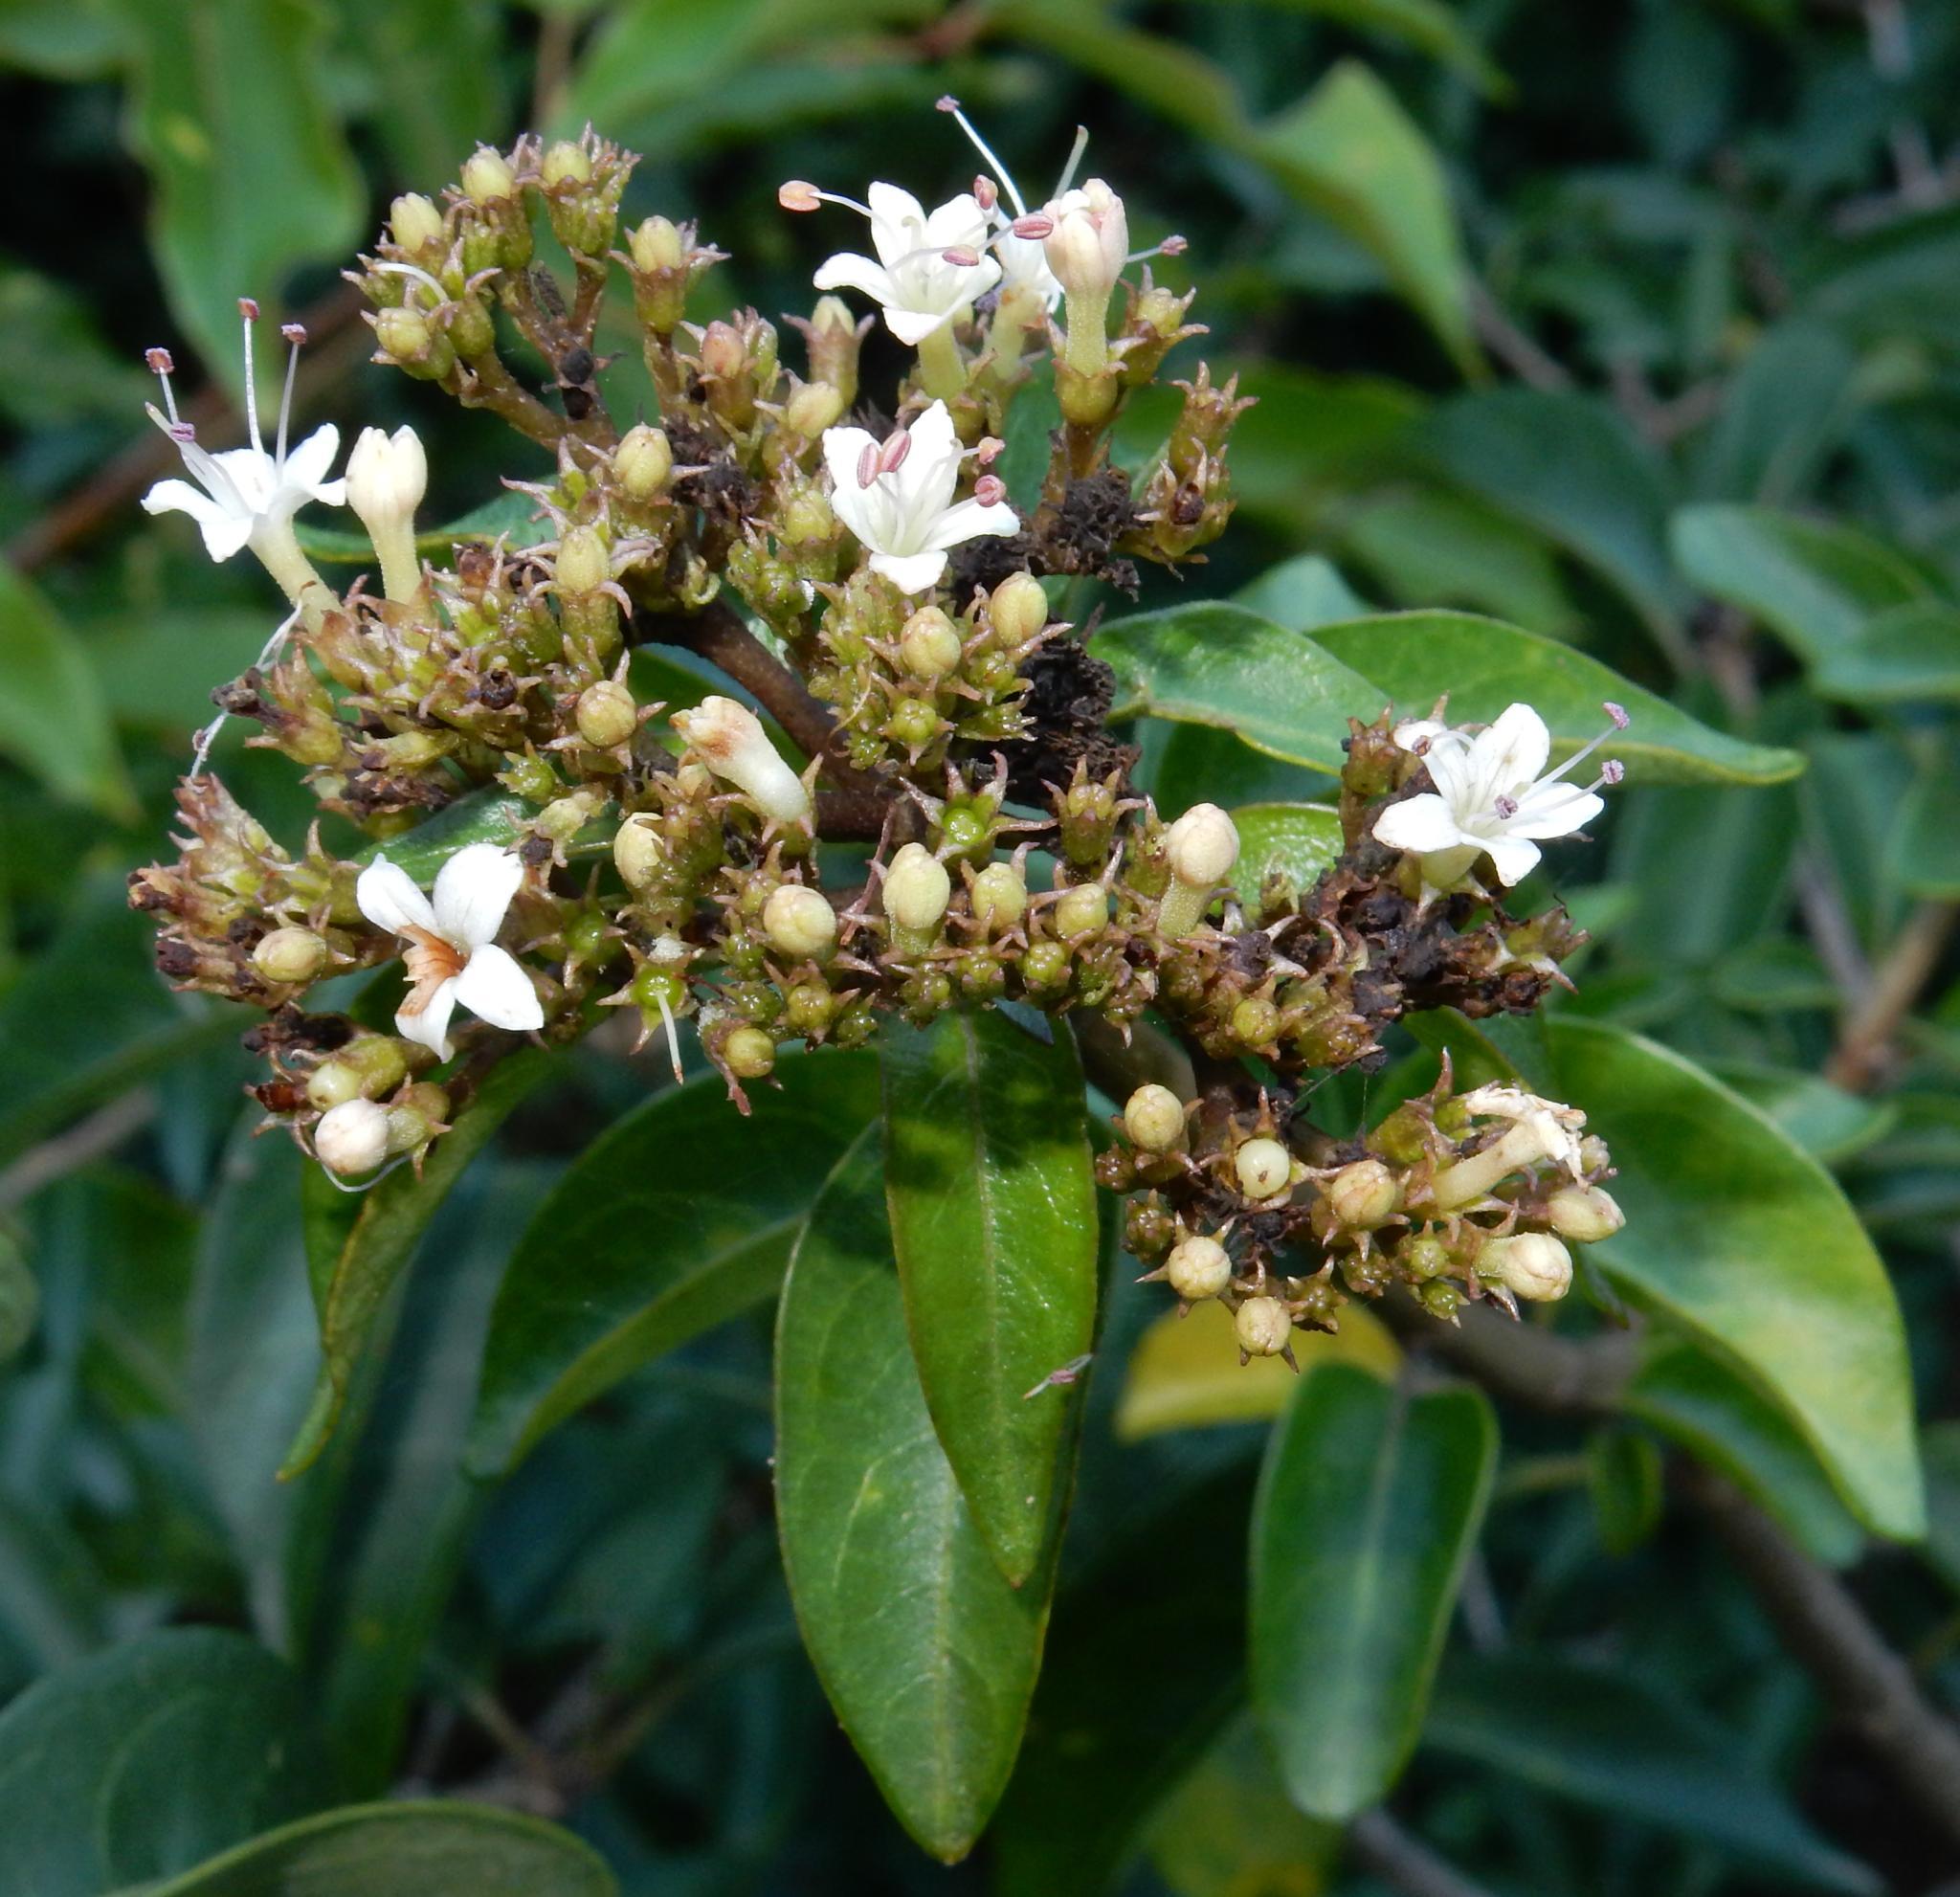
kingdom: Plantae
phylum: Tracheophyta
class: Magnoliopsida
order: Lamiales
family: Lamiaceae
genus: Volkameria
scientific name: Volkameria glabra
